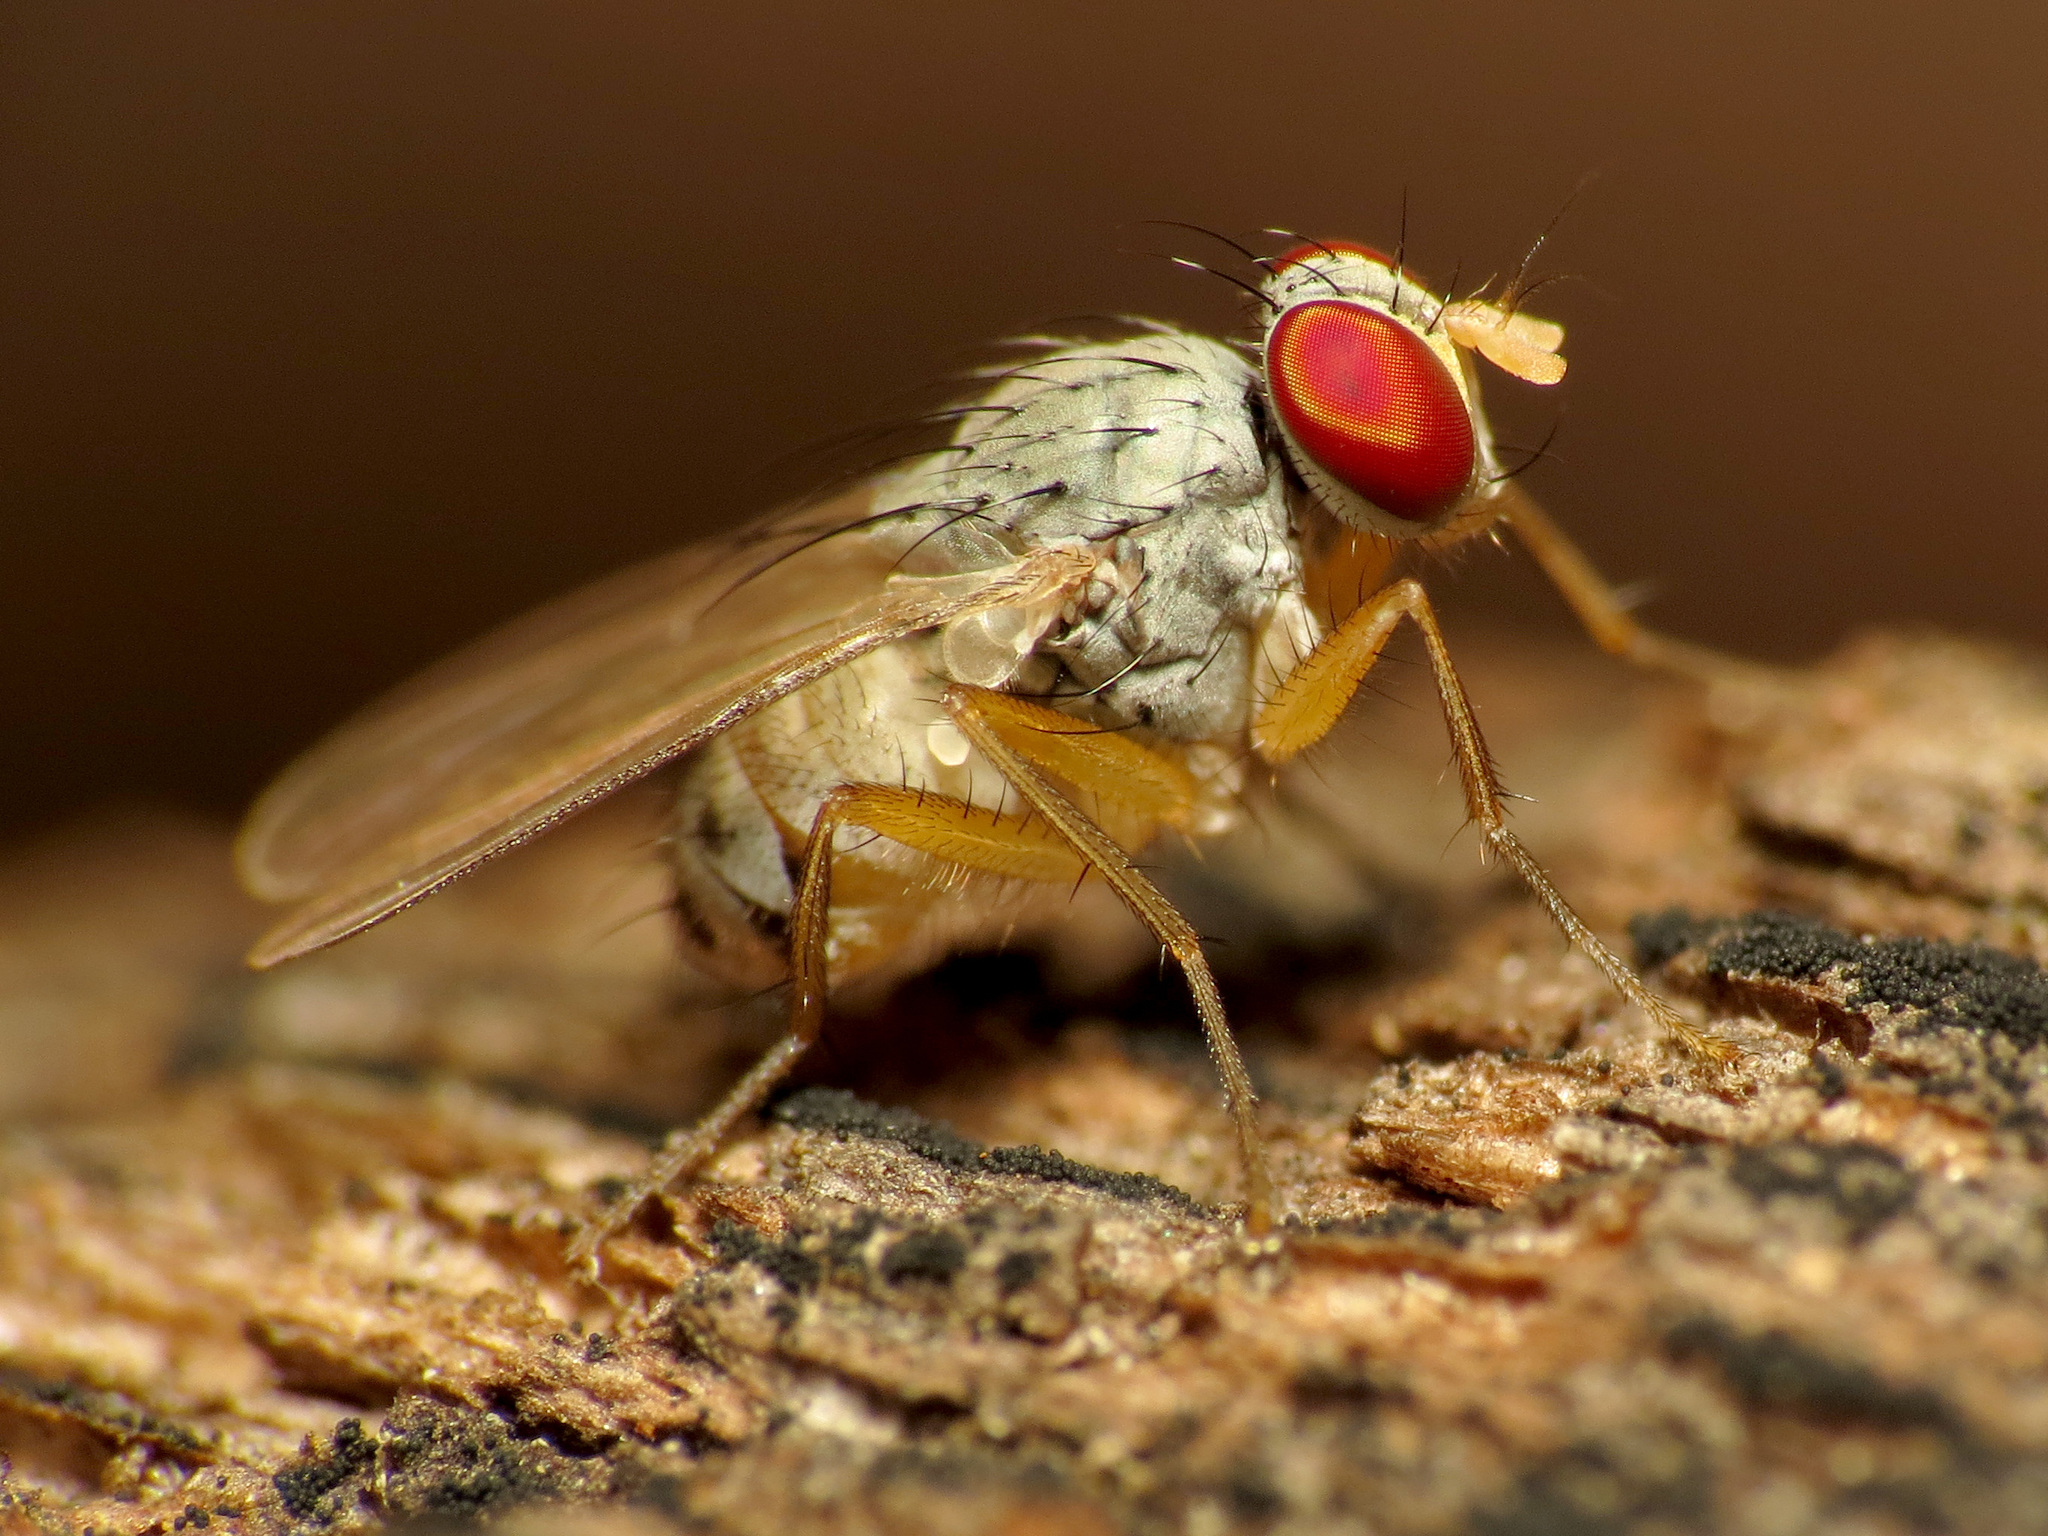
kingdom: Animalia
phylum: Arthropoda
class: Insecta
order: Diptera
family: Muscidae
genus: Neodexiopsis
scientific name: Neodexiopsis calopyga
